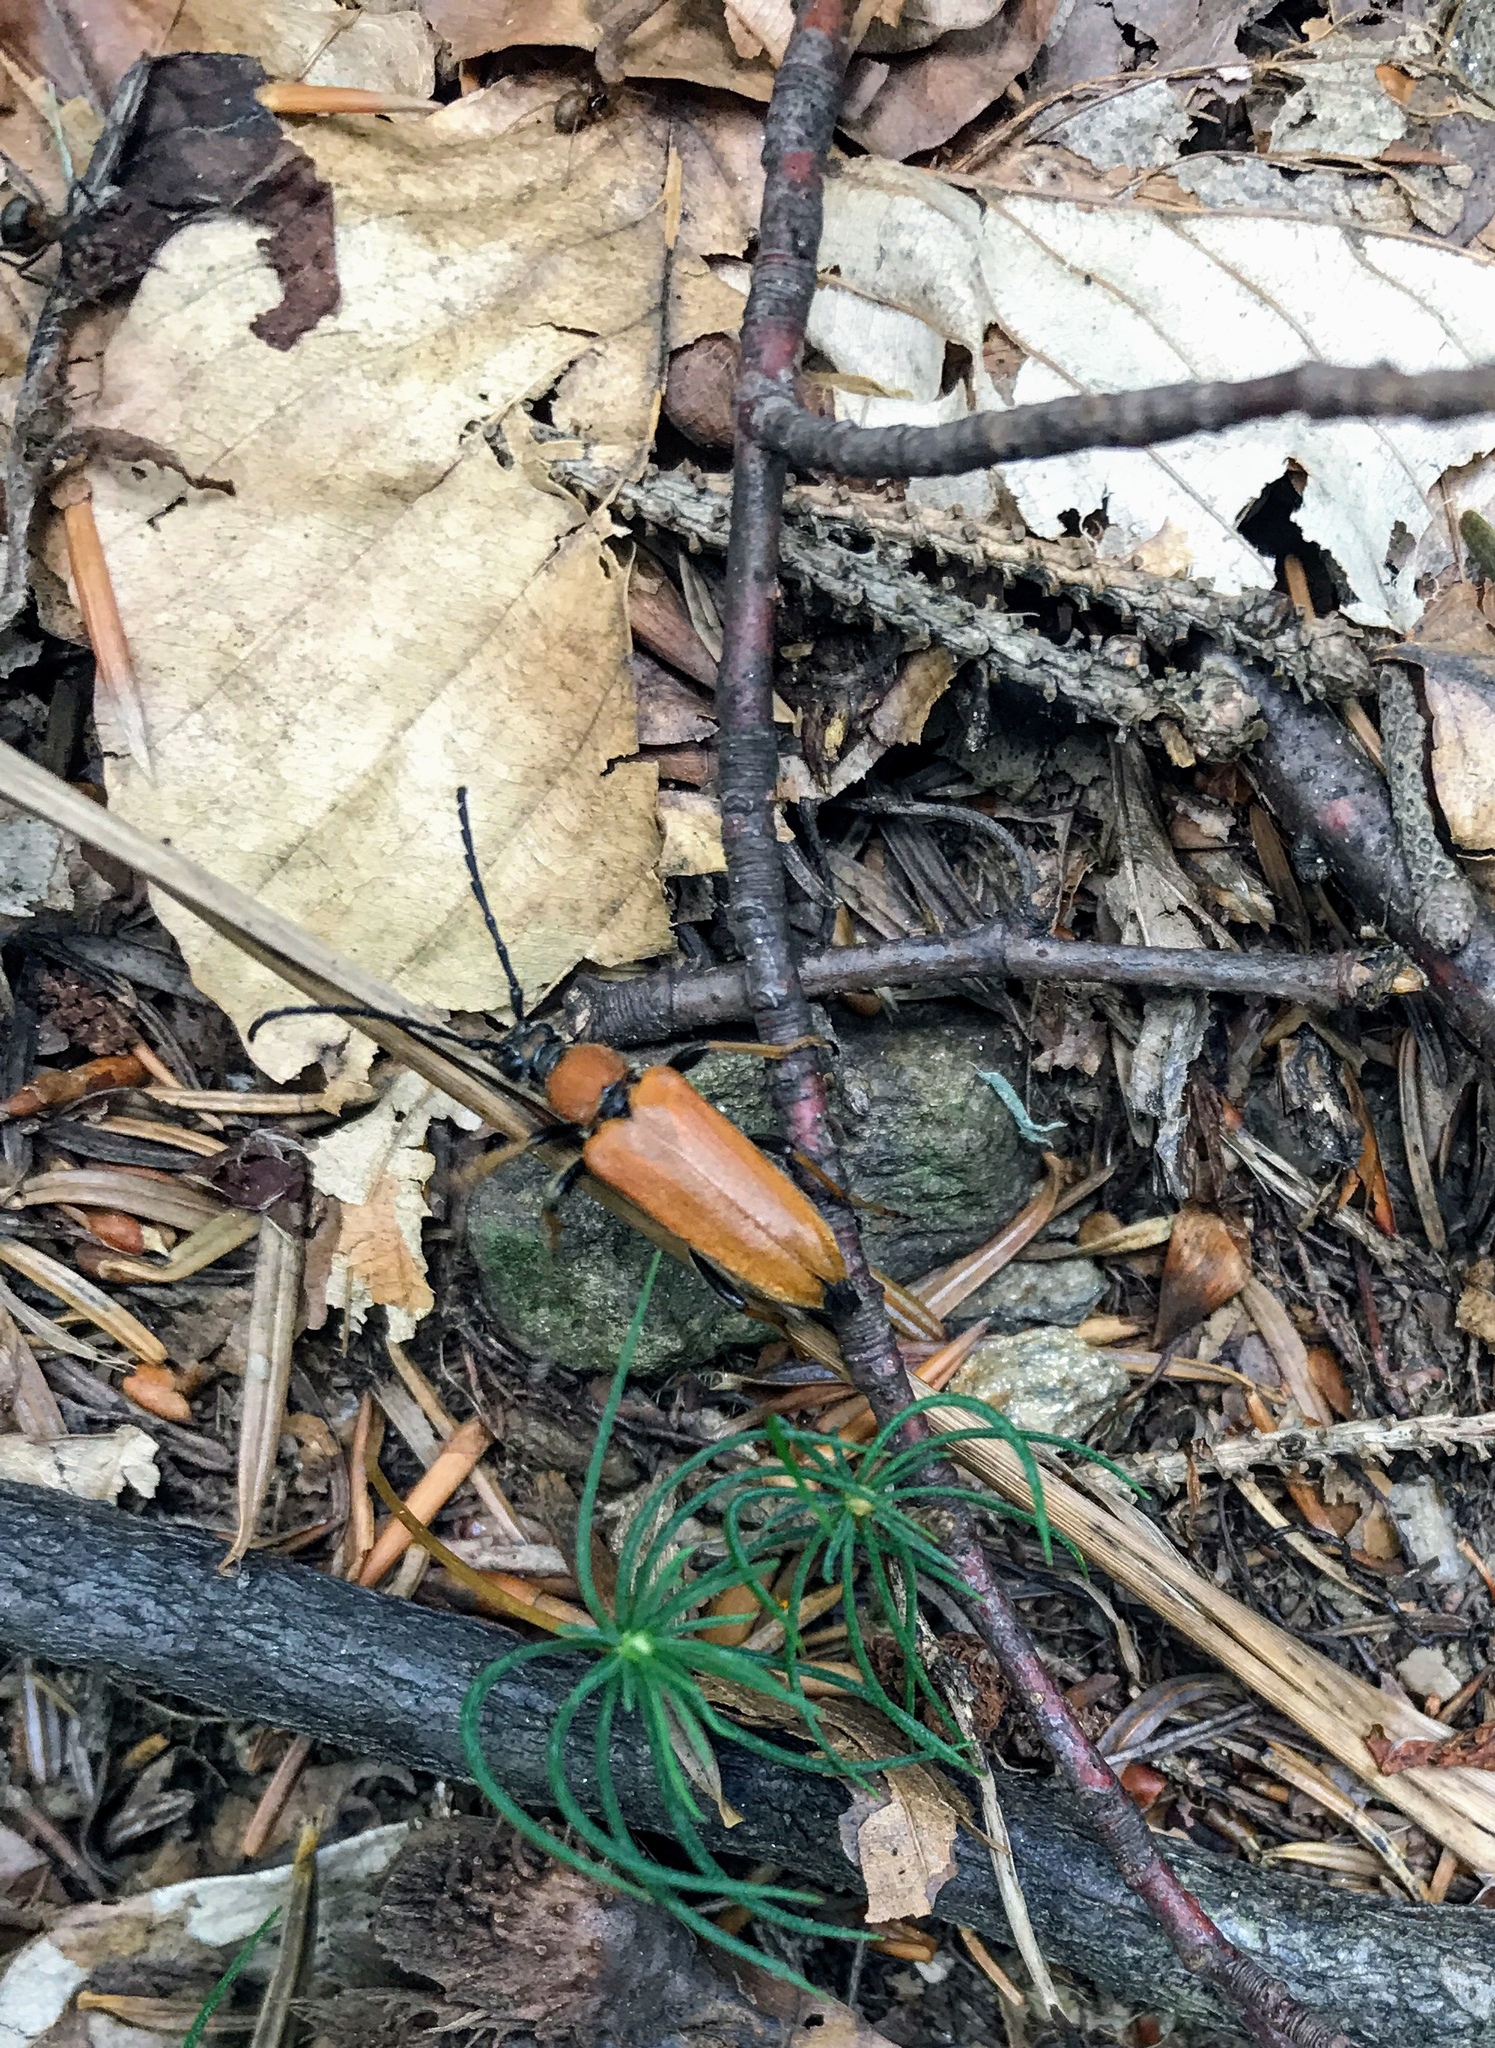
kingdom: Animalia
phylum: Arthropoda
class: Insecta
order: Coleoptera
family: Cerambycidae
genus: Stictoleptura
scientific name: Stictoleptura rubra
